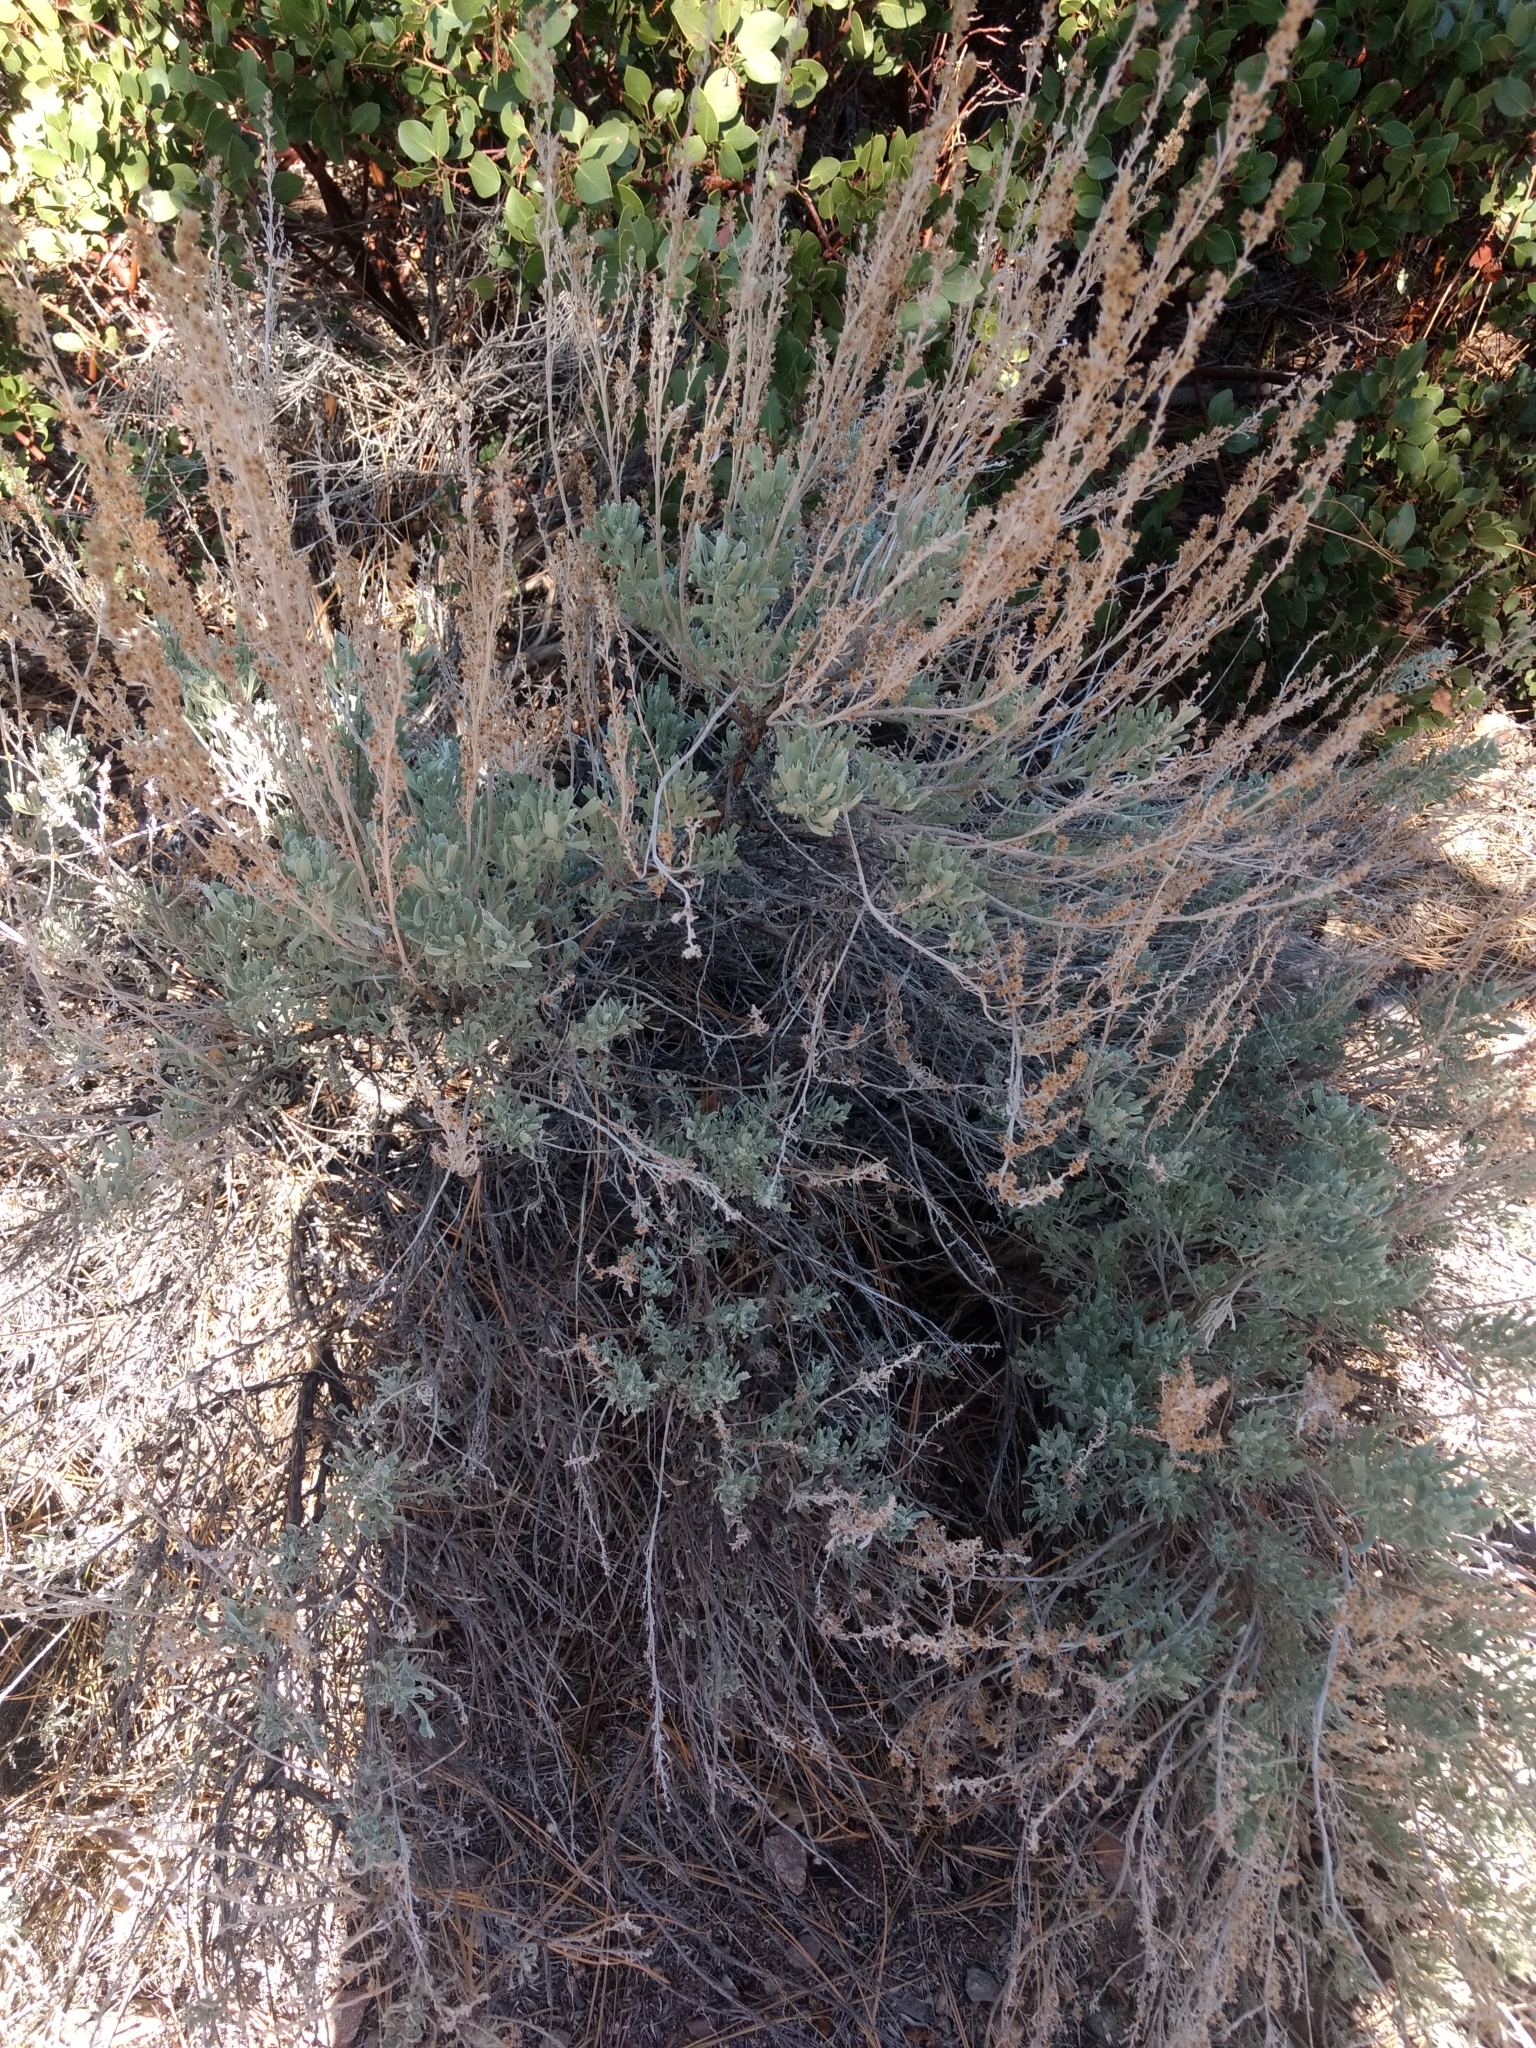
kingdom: Plantae
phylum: Tracheophyta
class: Magnoliopsida
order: Asterales
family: Asteraceae
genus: Artemisia
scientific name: Artemisia tridentata
